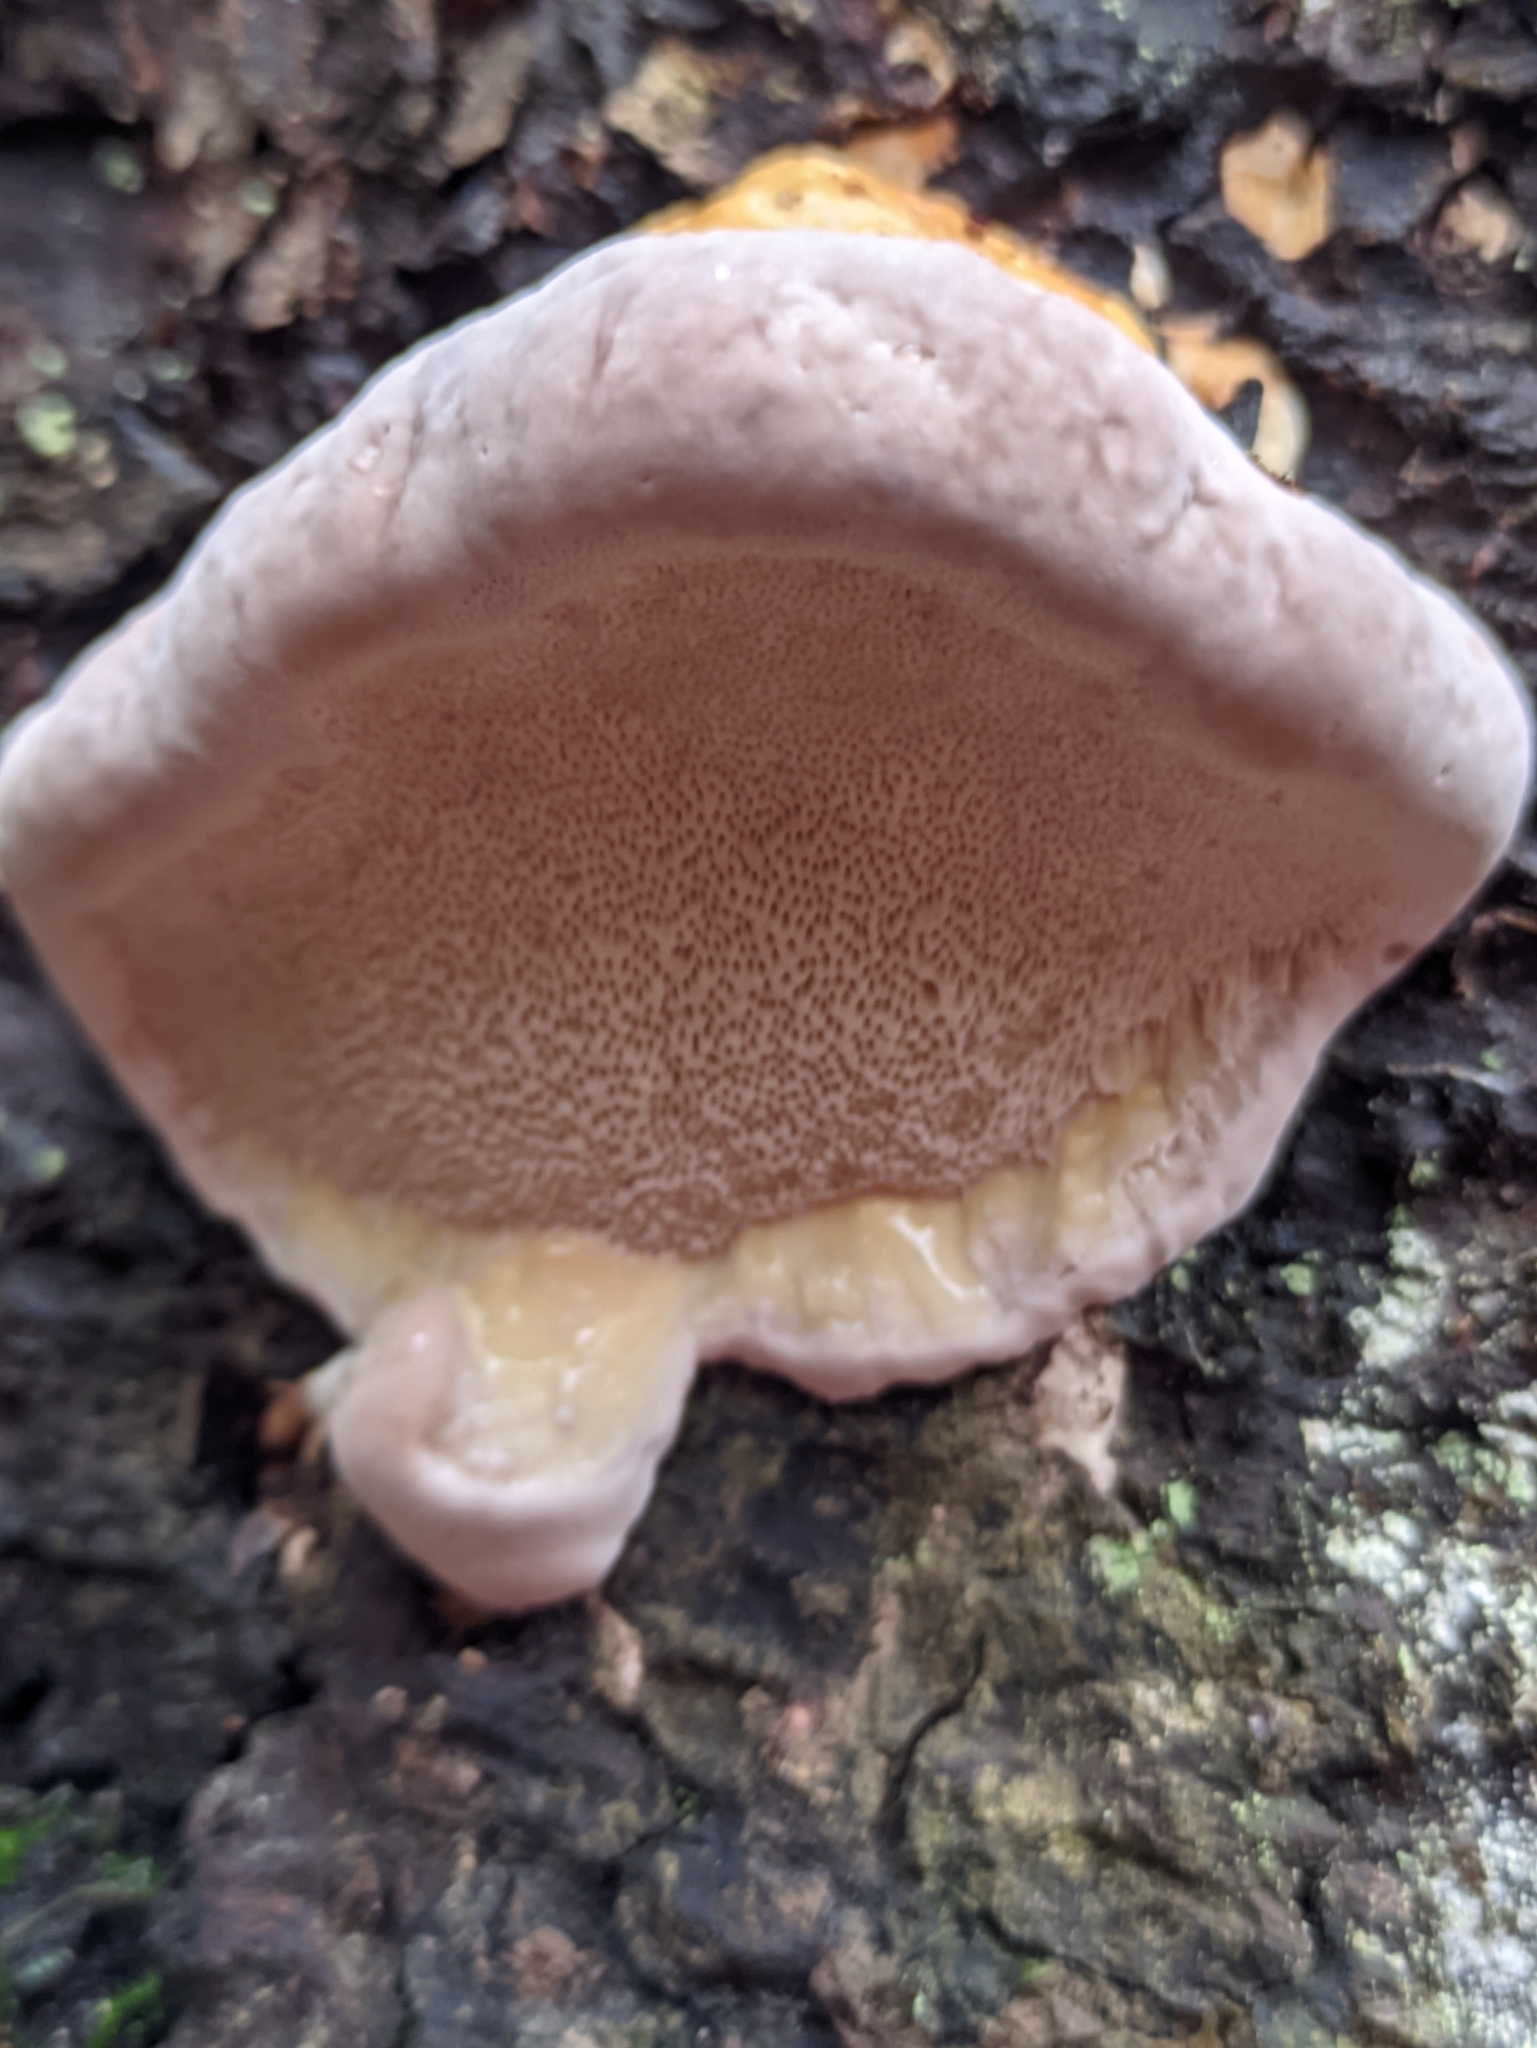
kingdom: Fungi
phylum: Basidiomycota
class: Agaricomycetes
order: Polyporales
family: Fomitopsidaceae
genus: Fomitopsis
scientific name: Fomitopsis pinicola
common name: Red-belted bracket
